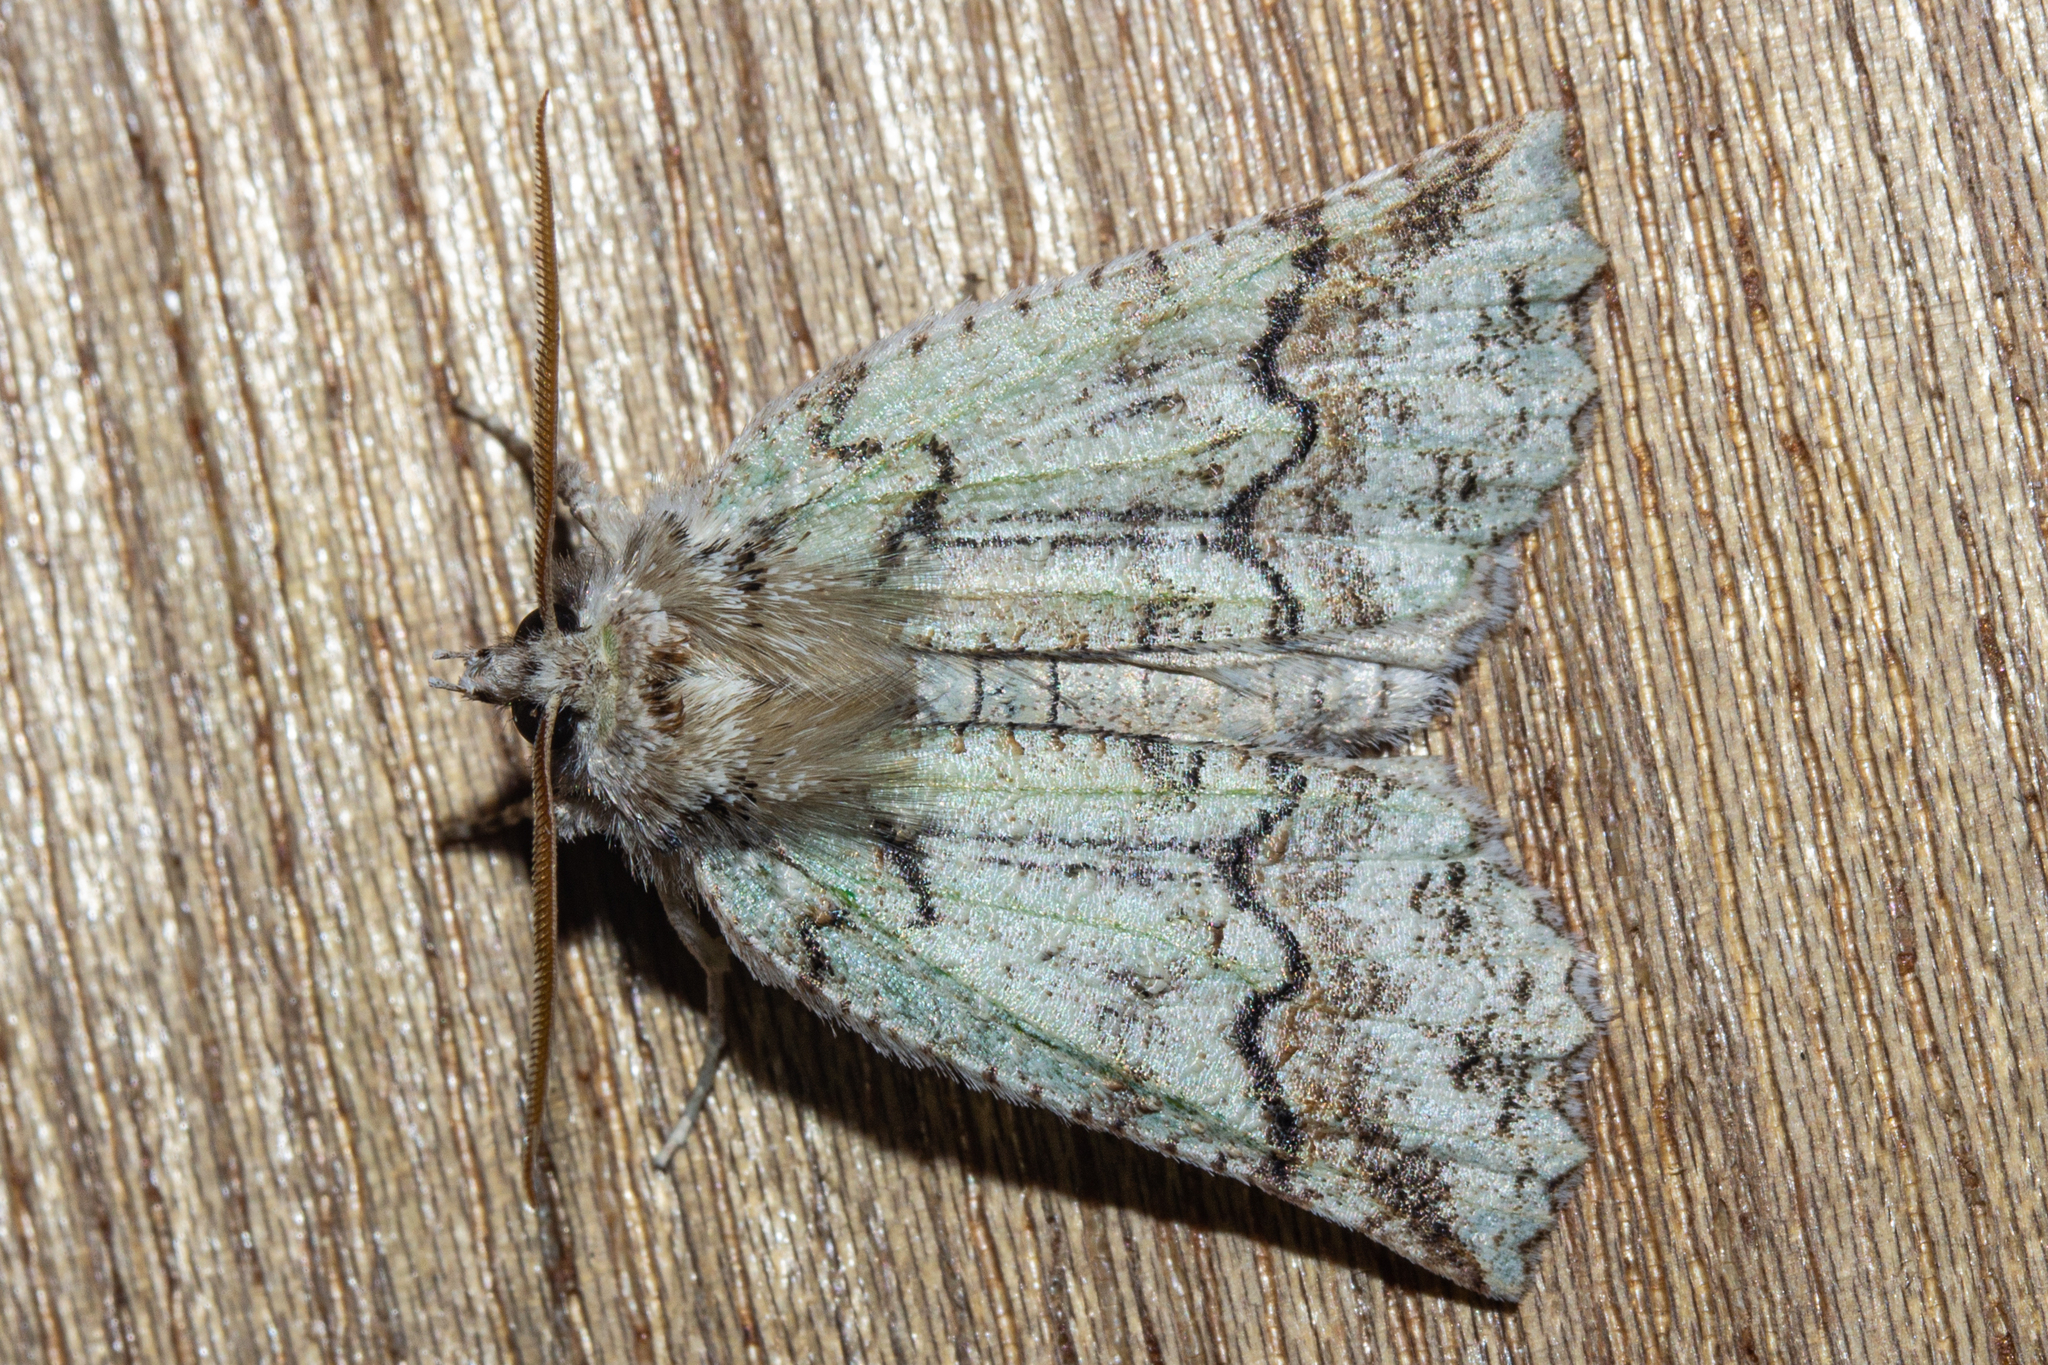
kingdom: Animalia
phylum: Arthropoda
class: Insecta
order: Lepidoptera
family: Geometridae
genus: Declana
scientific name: Declana floccosa
